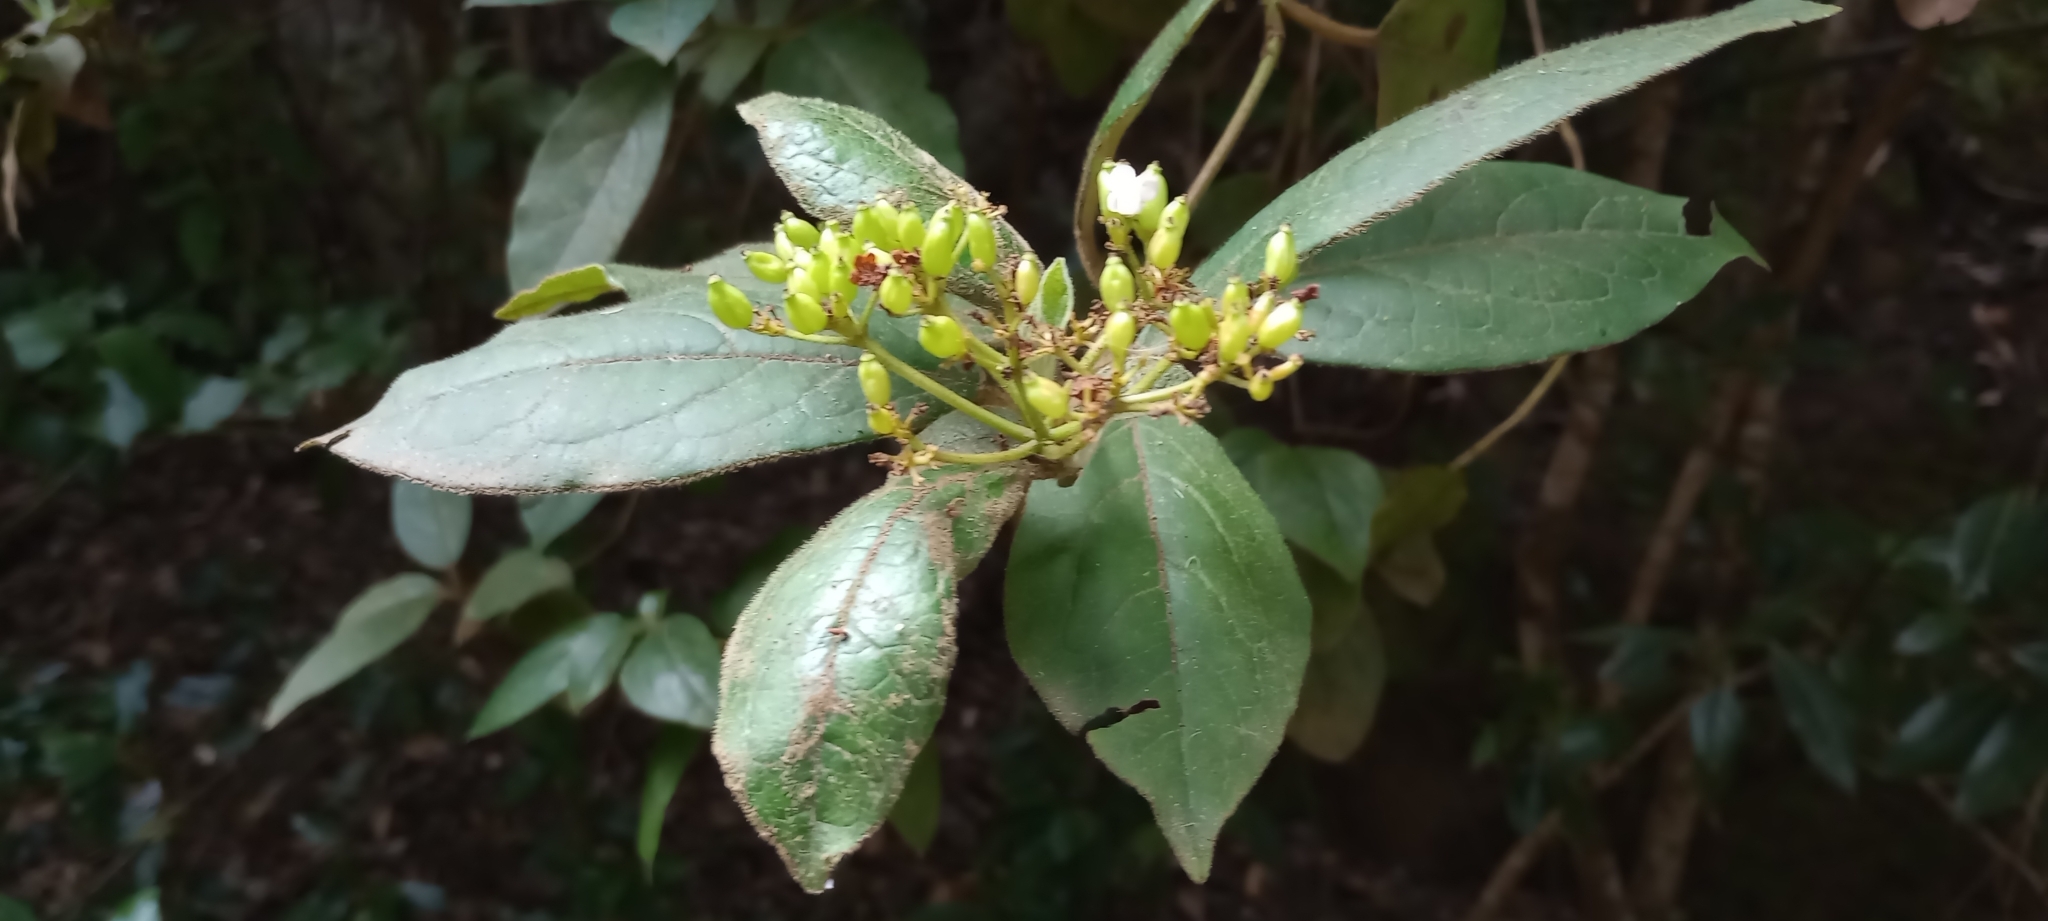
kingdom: Plantae
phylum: Tracheophyta
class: Magnoliopsida
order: Dipsacales
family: Viburnaceae
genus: Viburnum
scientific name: Viburnum rugosum
